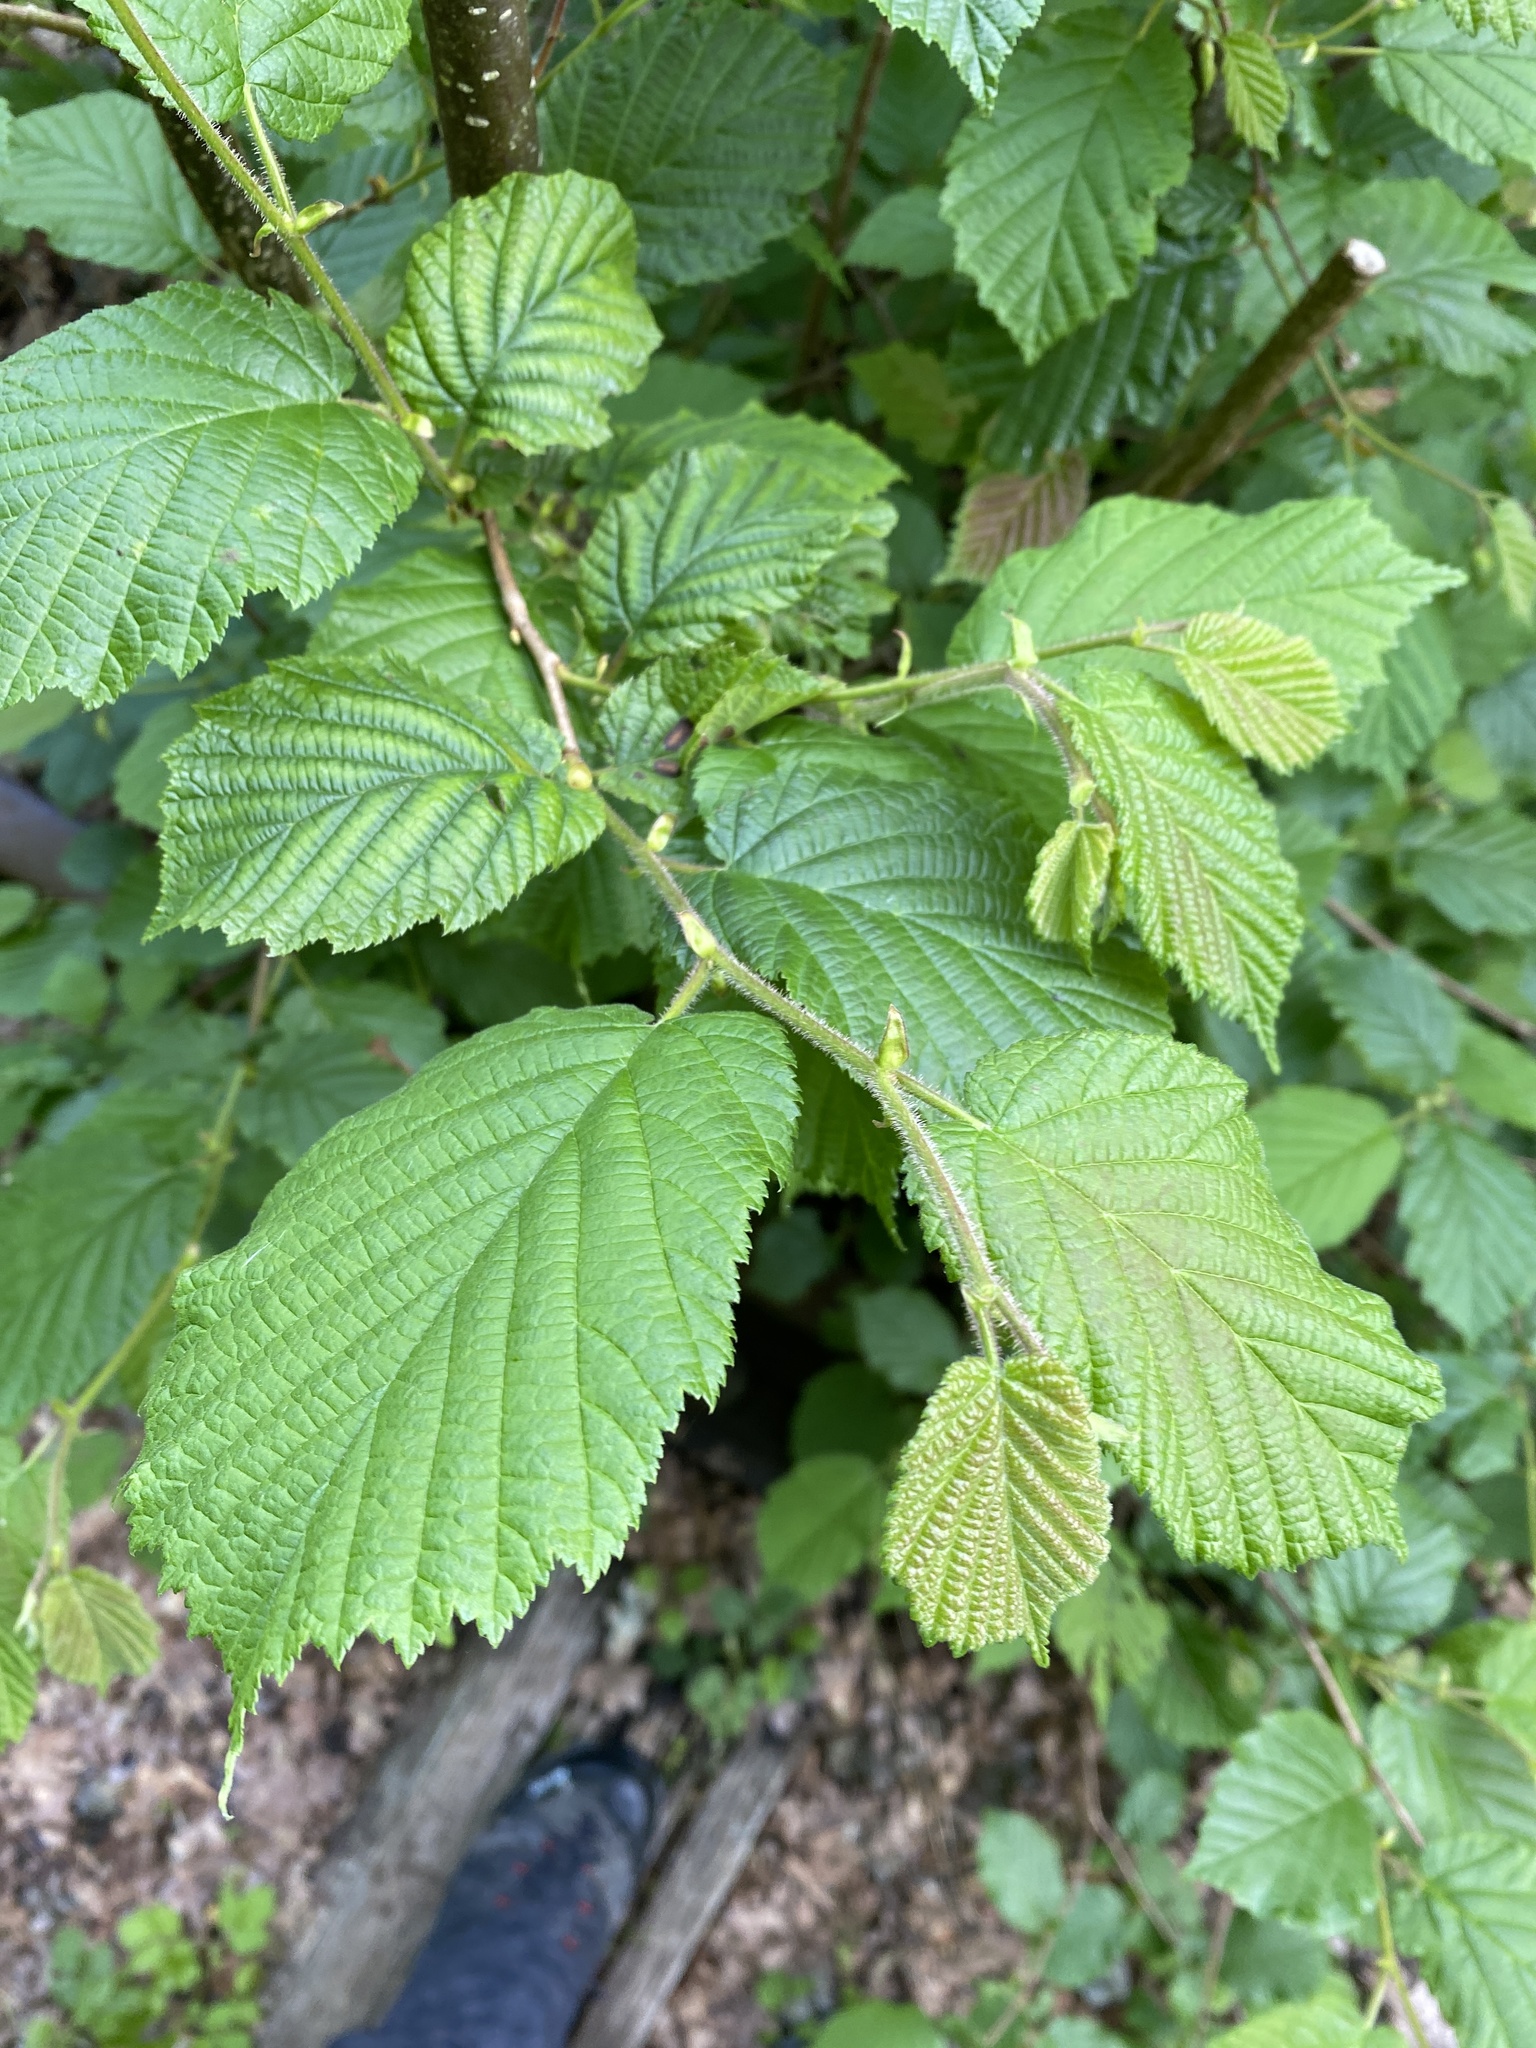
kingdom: Plantae
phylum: Tracheophyta
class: Magnoliopsida
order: Fagales
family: Betulaceae
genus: Corylus
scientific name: Corylus avellana
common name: European hazel
